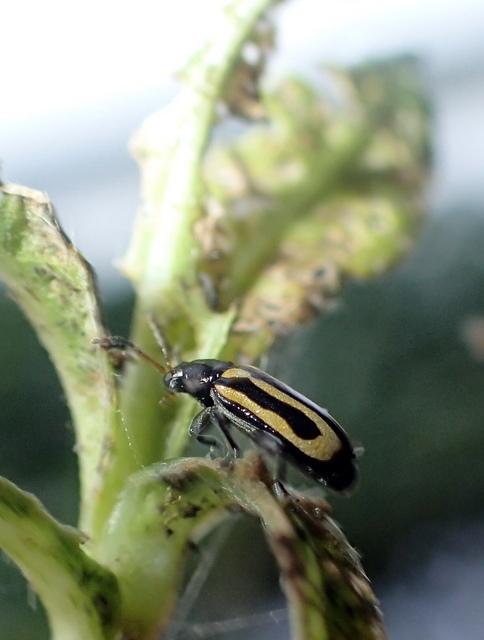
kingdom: Animalia
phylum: Arthropoda
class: Insecta
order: Coleoptera
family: Chrysomelidae
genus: Agasicles
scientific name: Agasicles hygrophila
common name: Alligatorweed flea beetle
